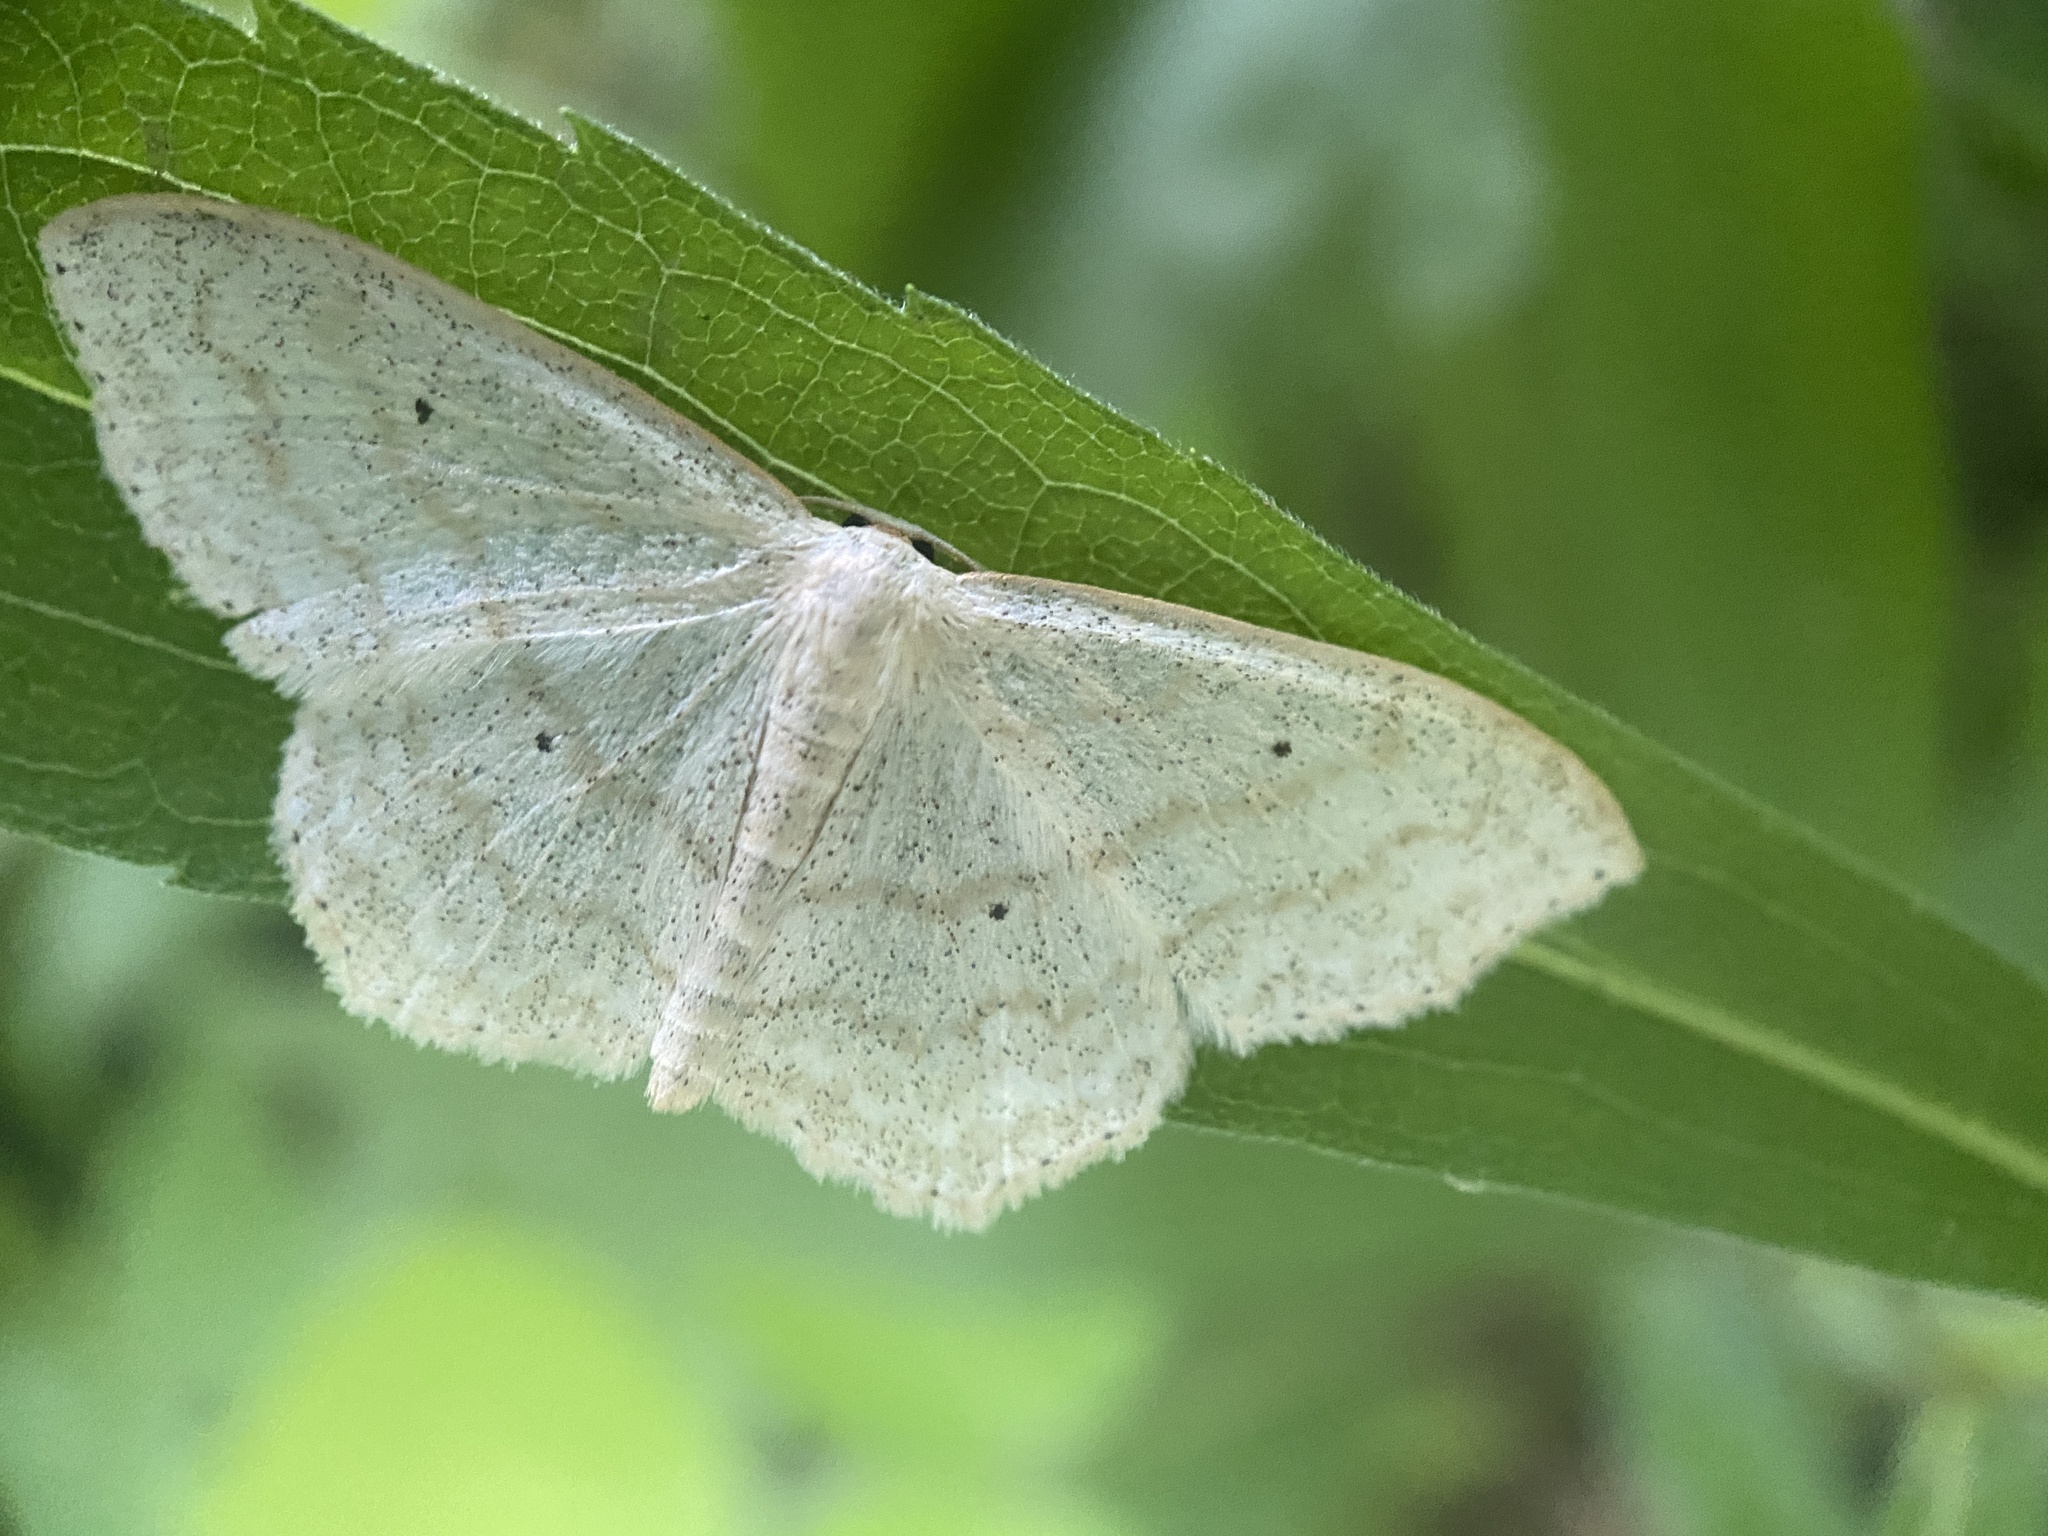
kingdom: Animalia
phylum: Arthropoda
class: Insecta
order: Lepidoptera
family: Geometridae
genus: Scopula
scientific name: Scopula limboundata
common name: Large lace border
